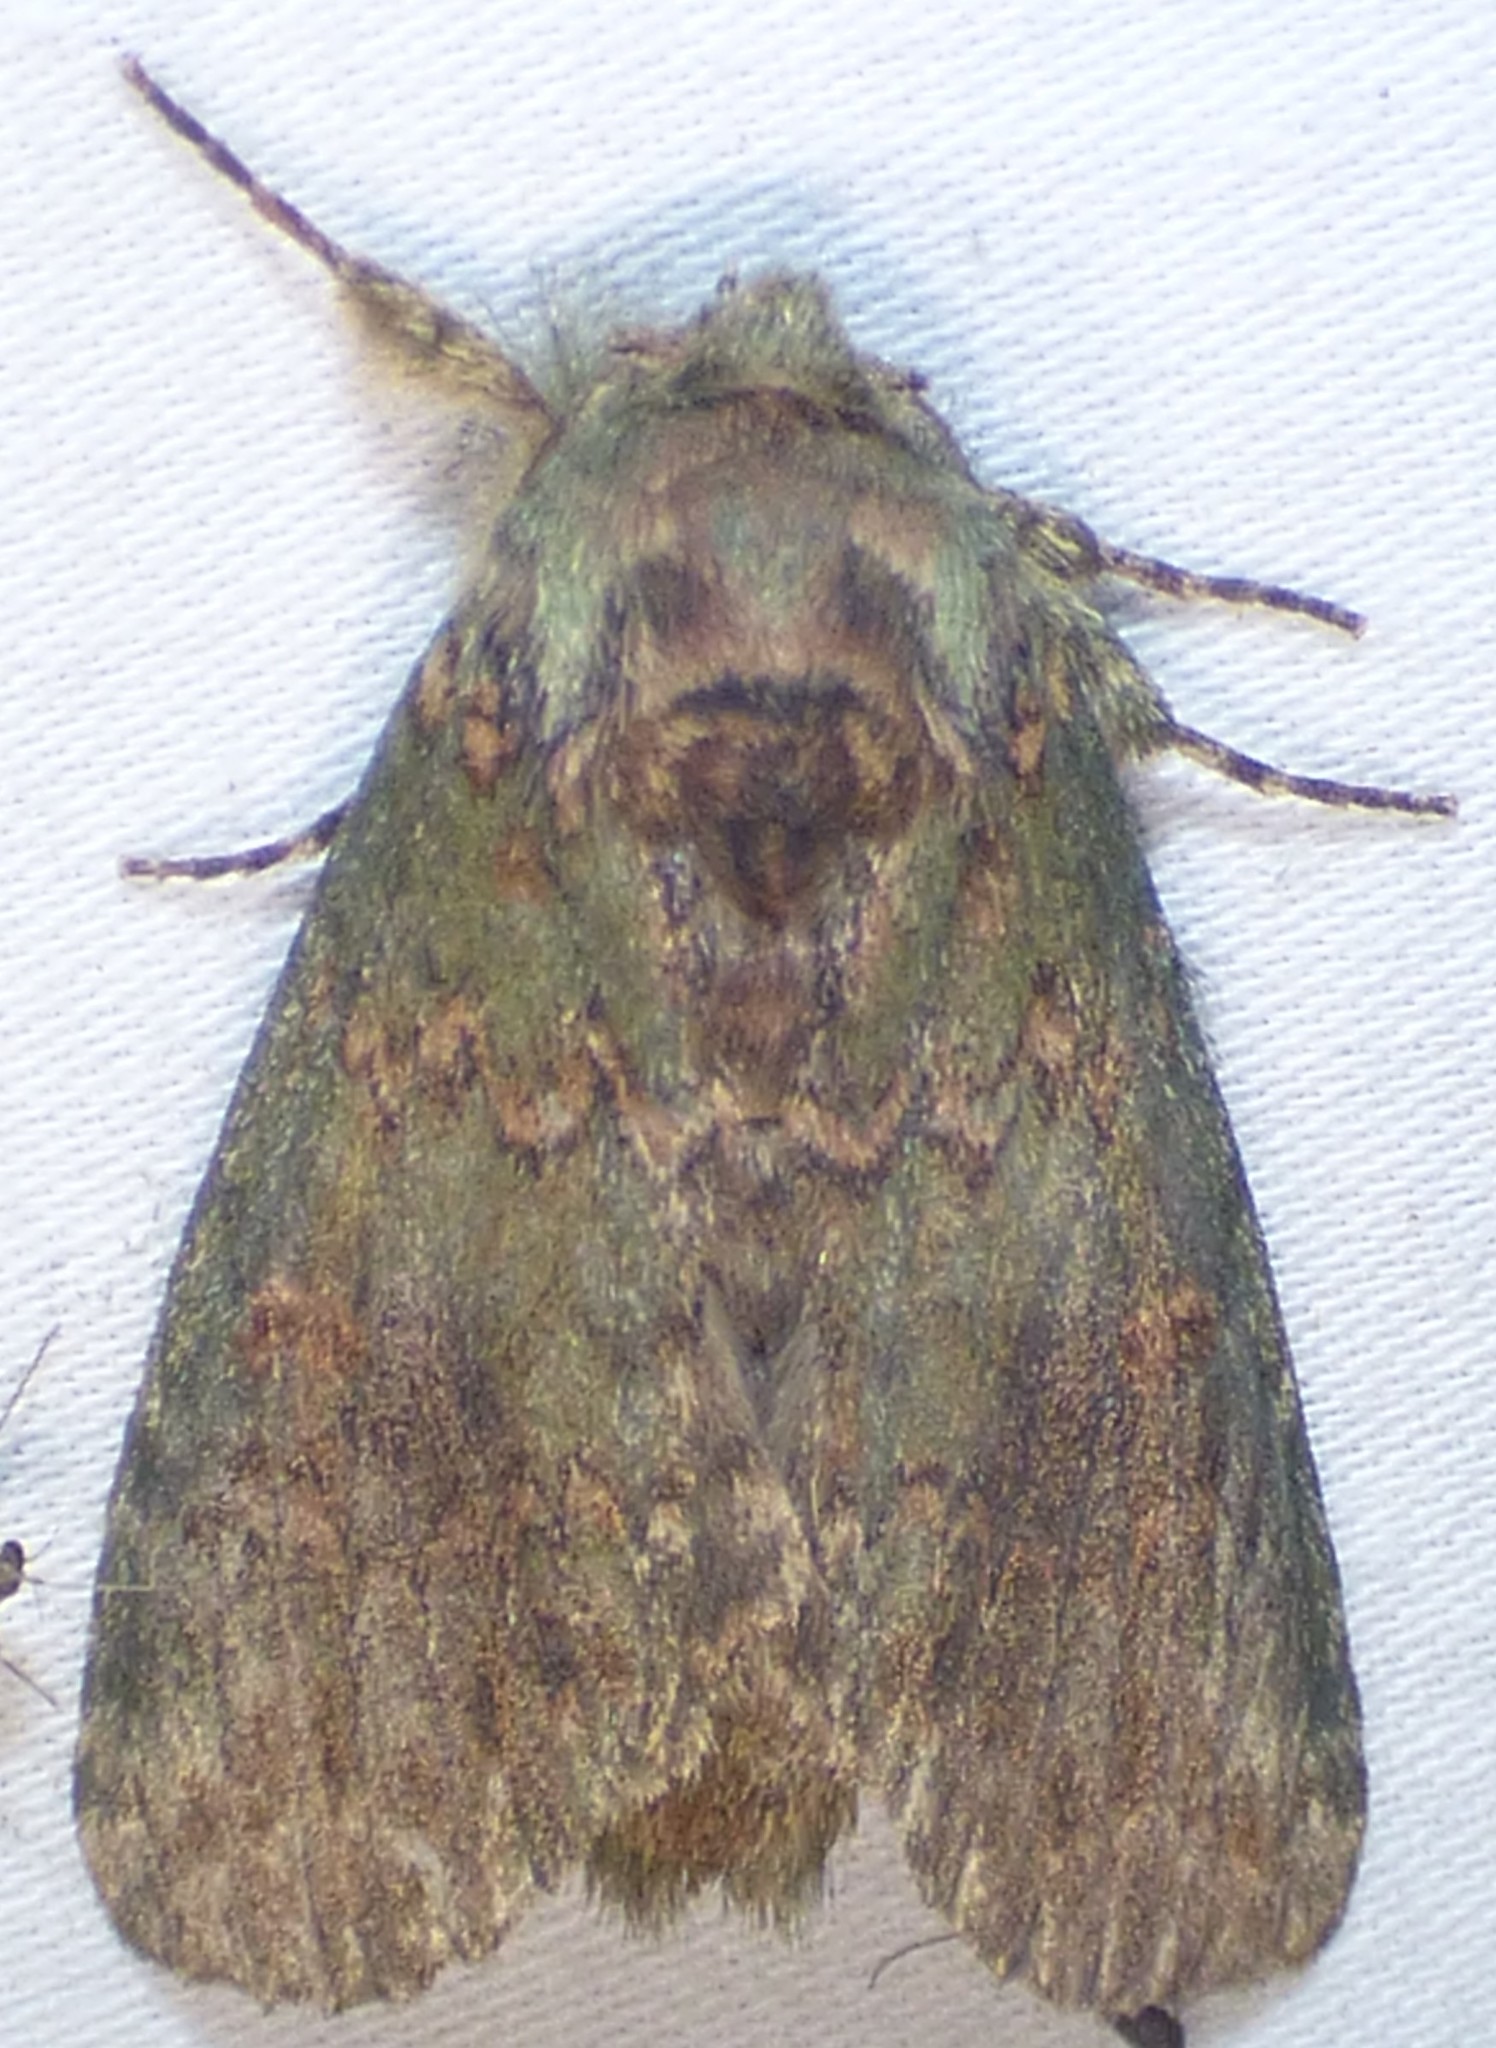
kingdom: Animalia
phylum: Arthropoda
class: Insecta
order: Lepidoptera
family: Notodontidae
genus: Disphragis
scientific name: Disphragis Cecrita biundata
